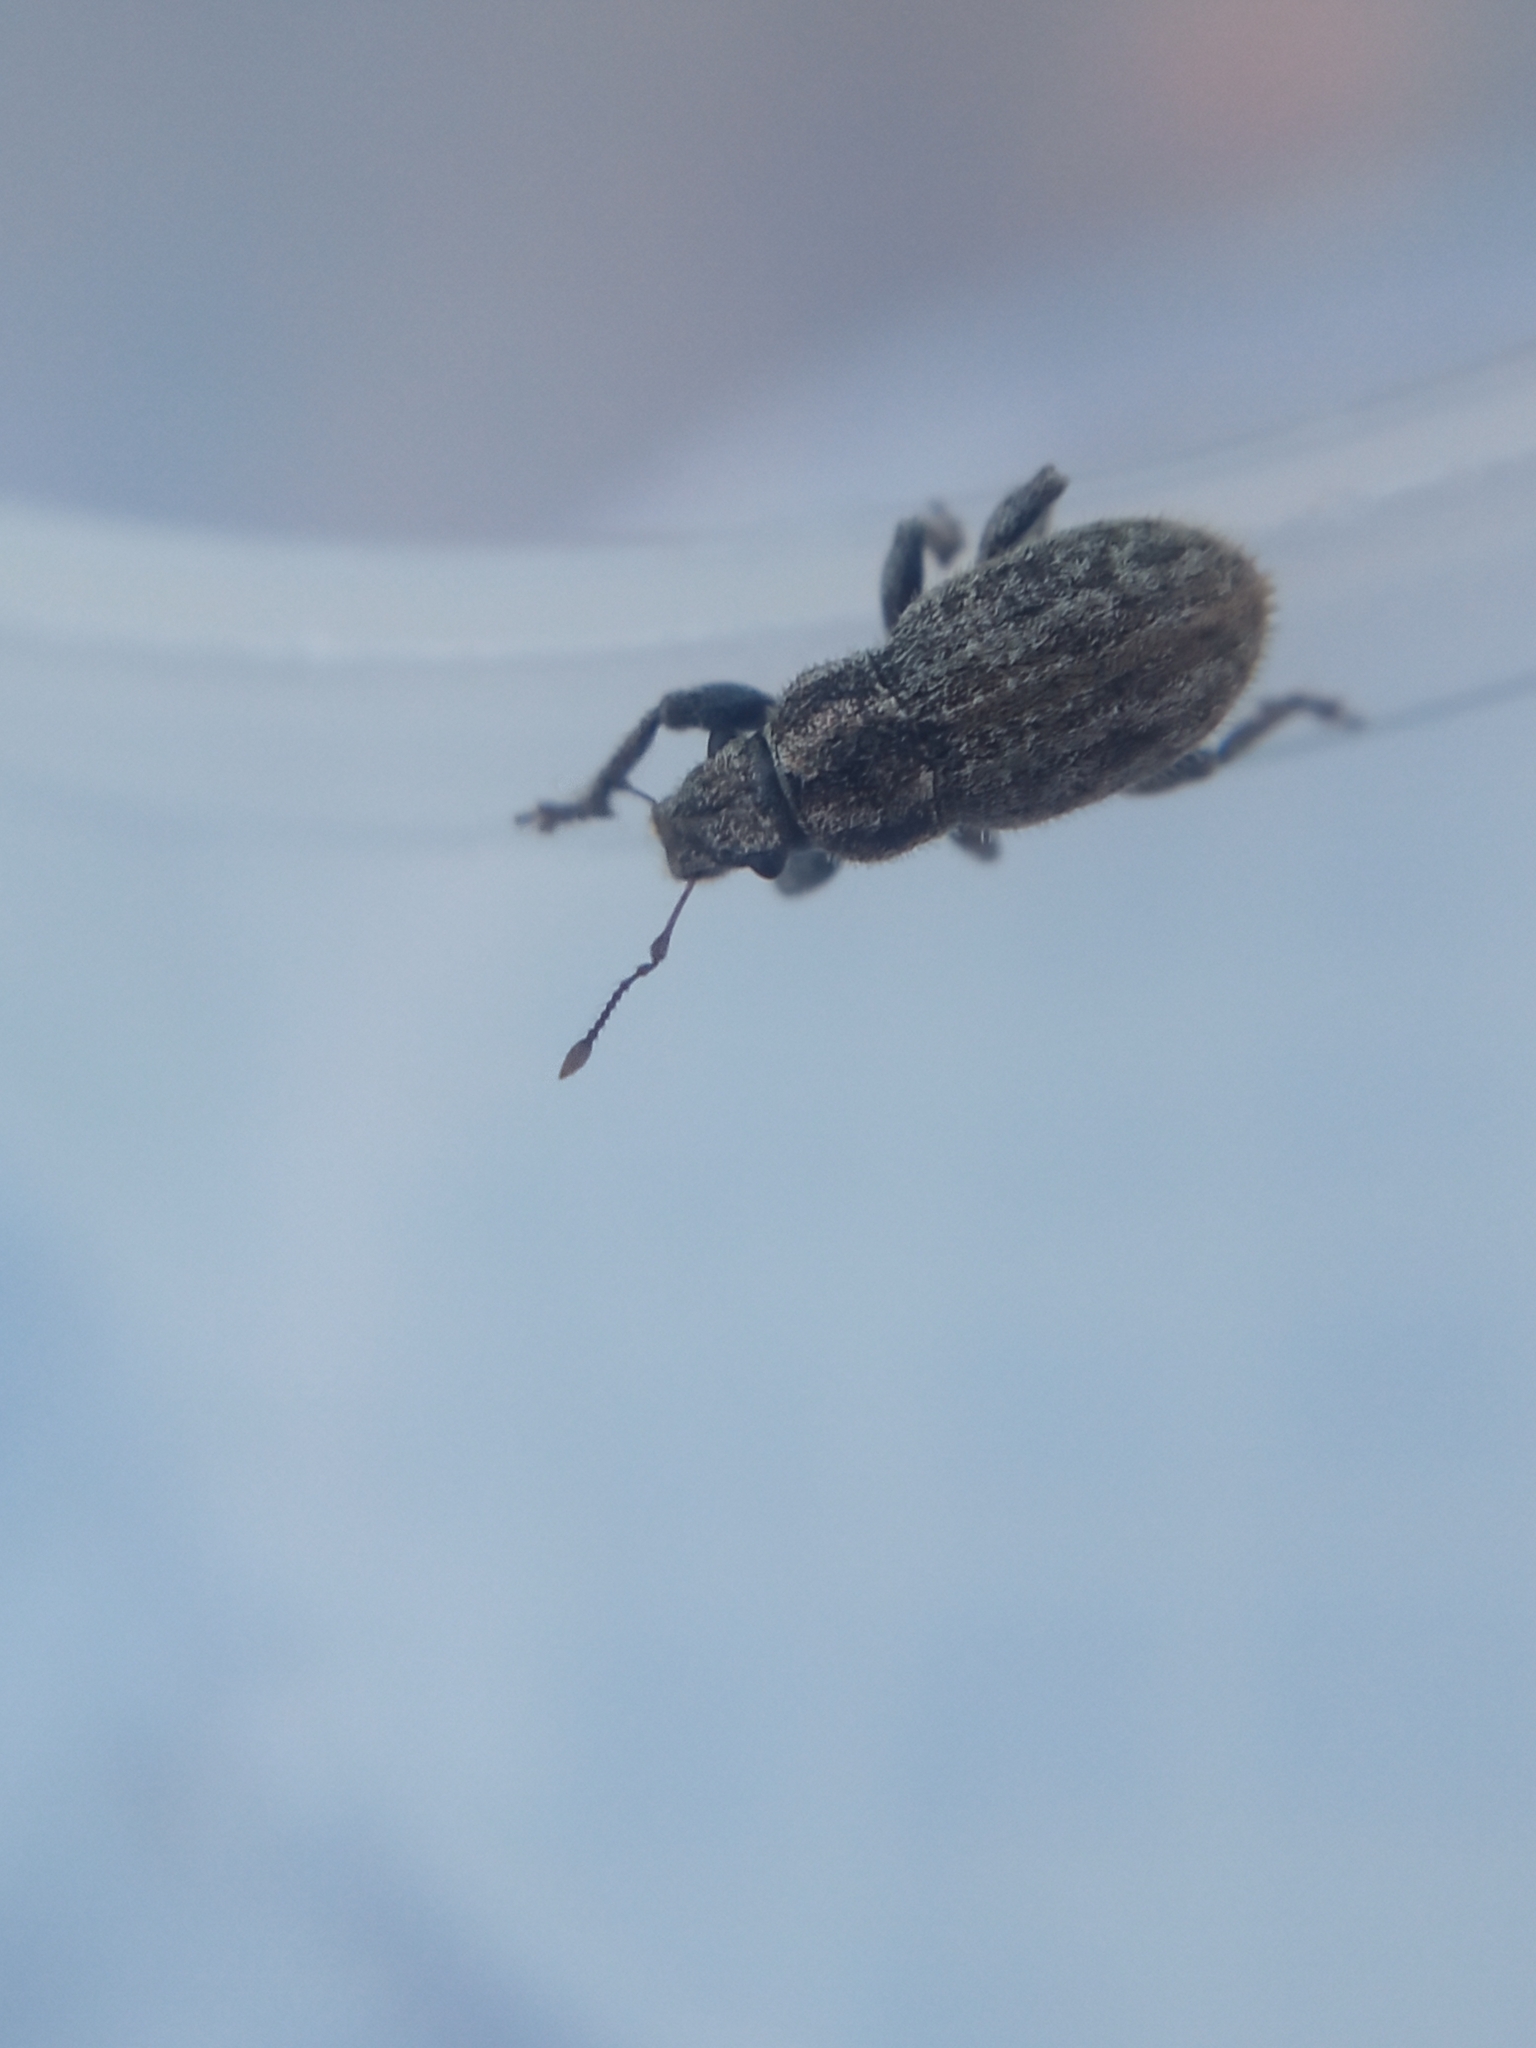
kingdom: Animalia
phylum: Arthropoda
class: Insecta
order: Coleoptera
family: Curculionidae
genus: Strophosoma
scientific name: Strophosoma faber
